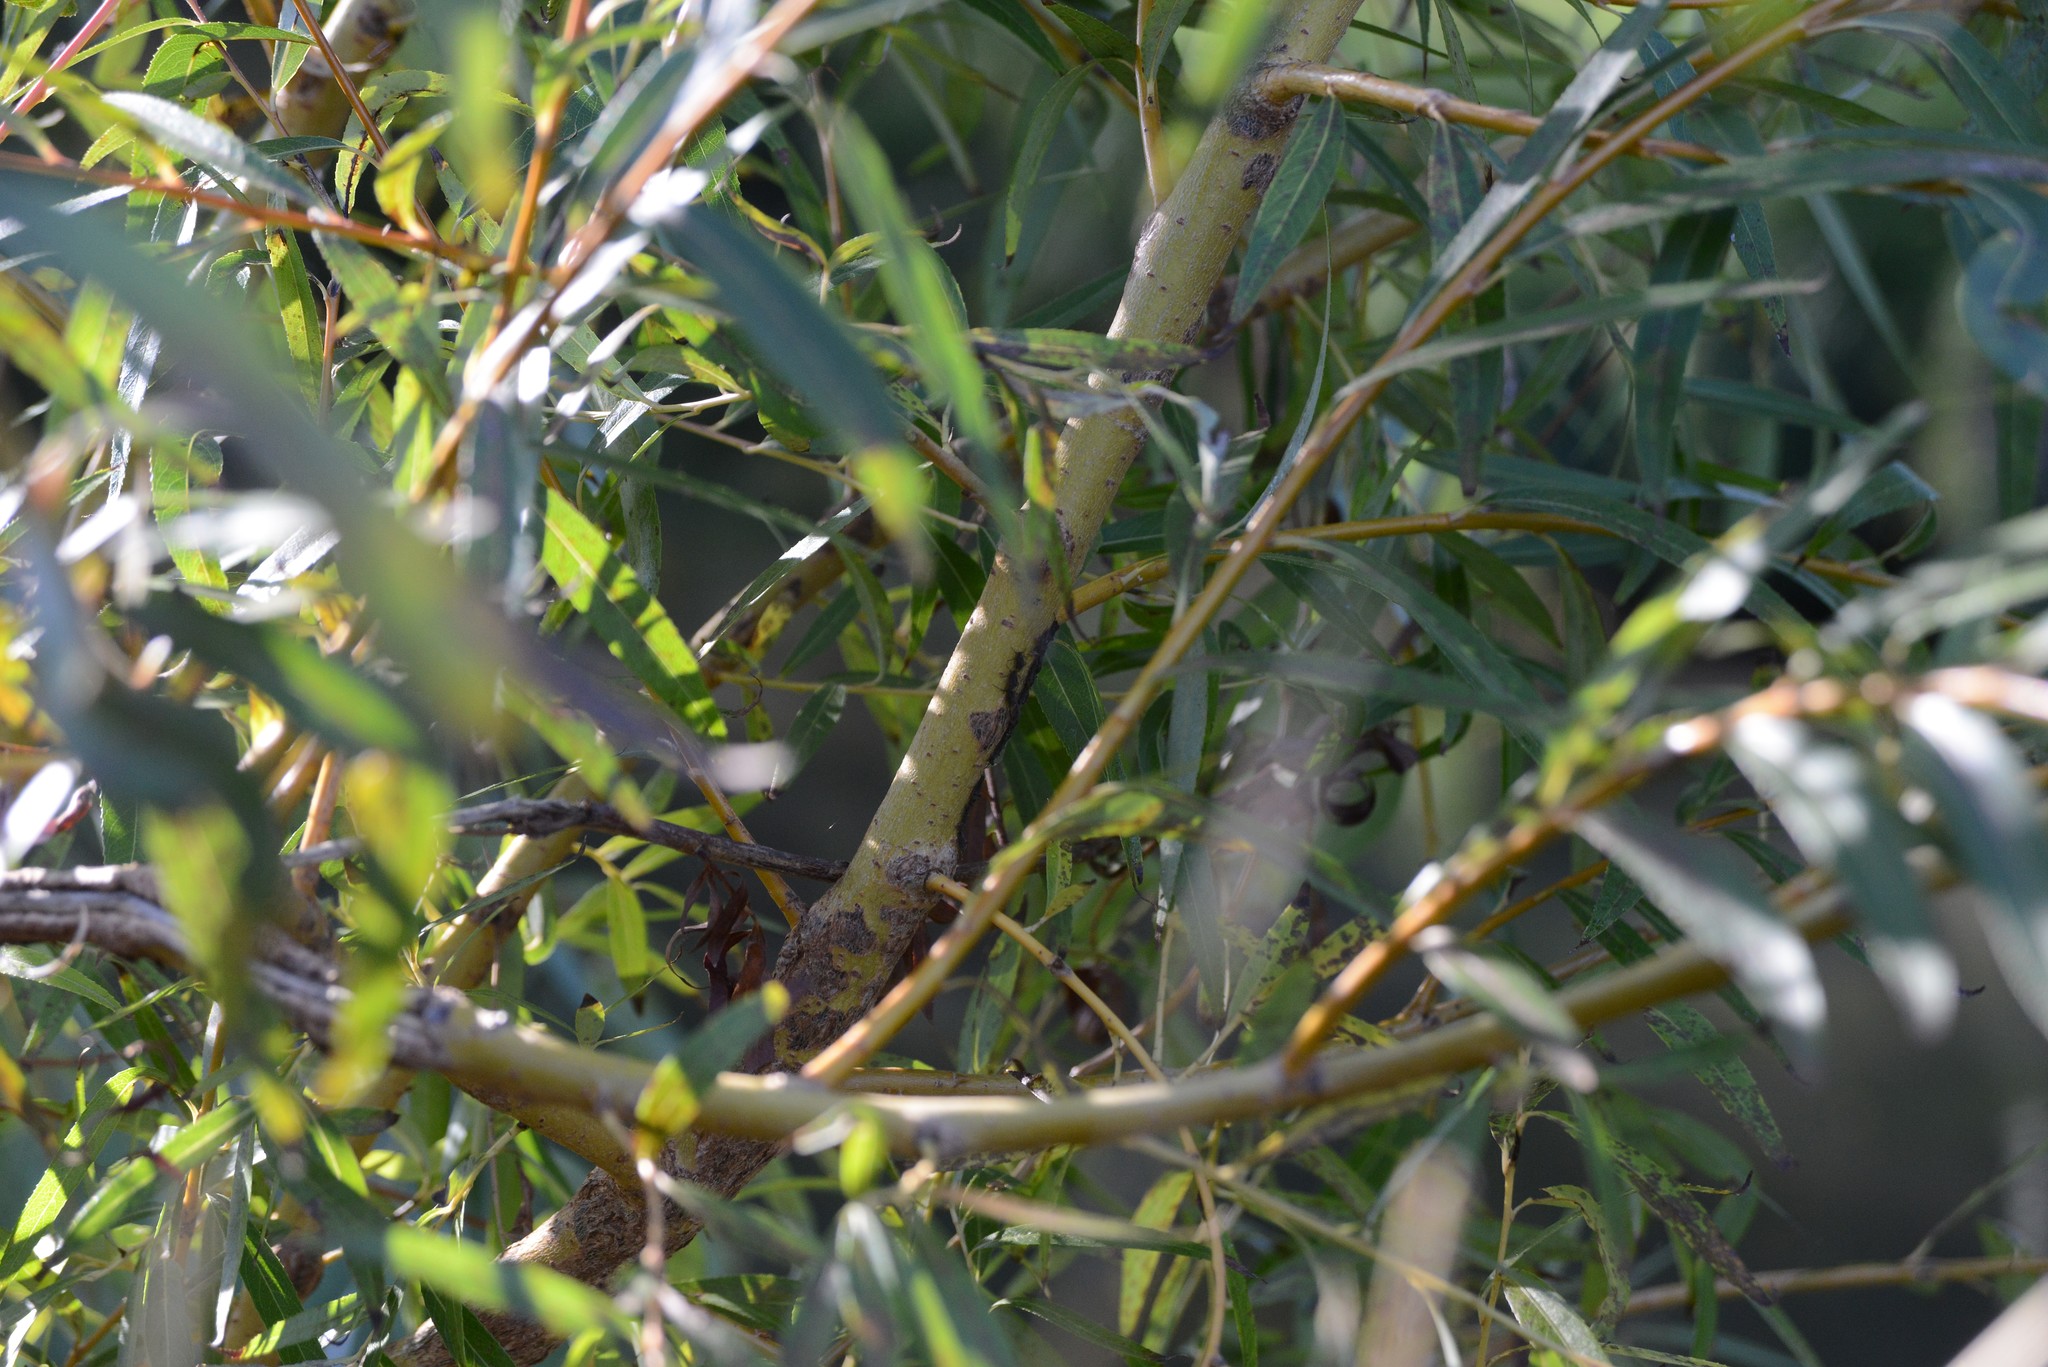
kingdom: Animalia
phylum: Arthropoda
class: Insecta
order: Hemiptera
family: Aphididae
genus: Tuberolachnus
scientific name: Tuberolachnus salignus
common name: Giant willow aphid
